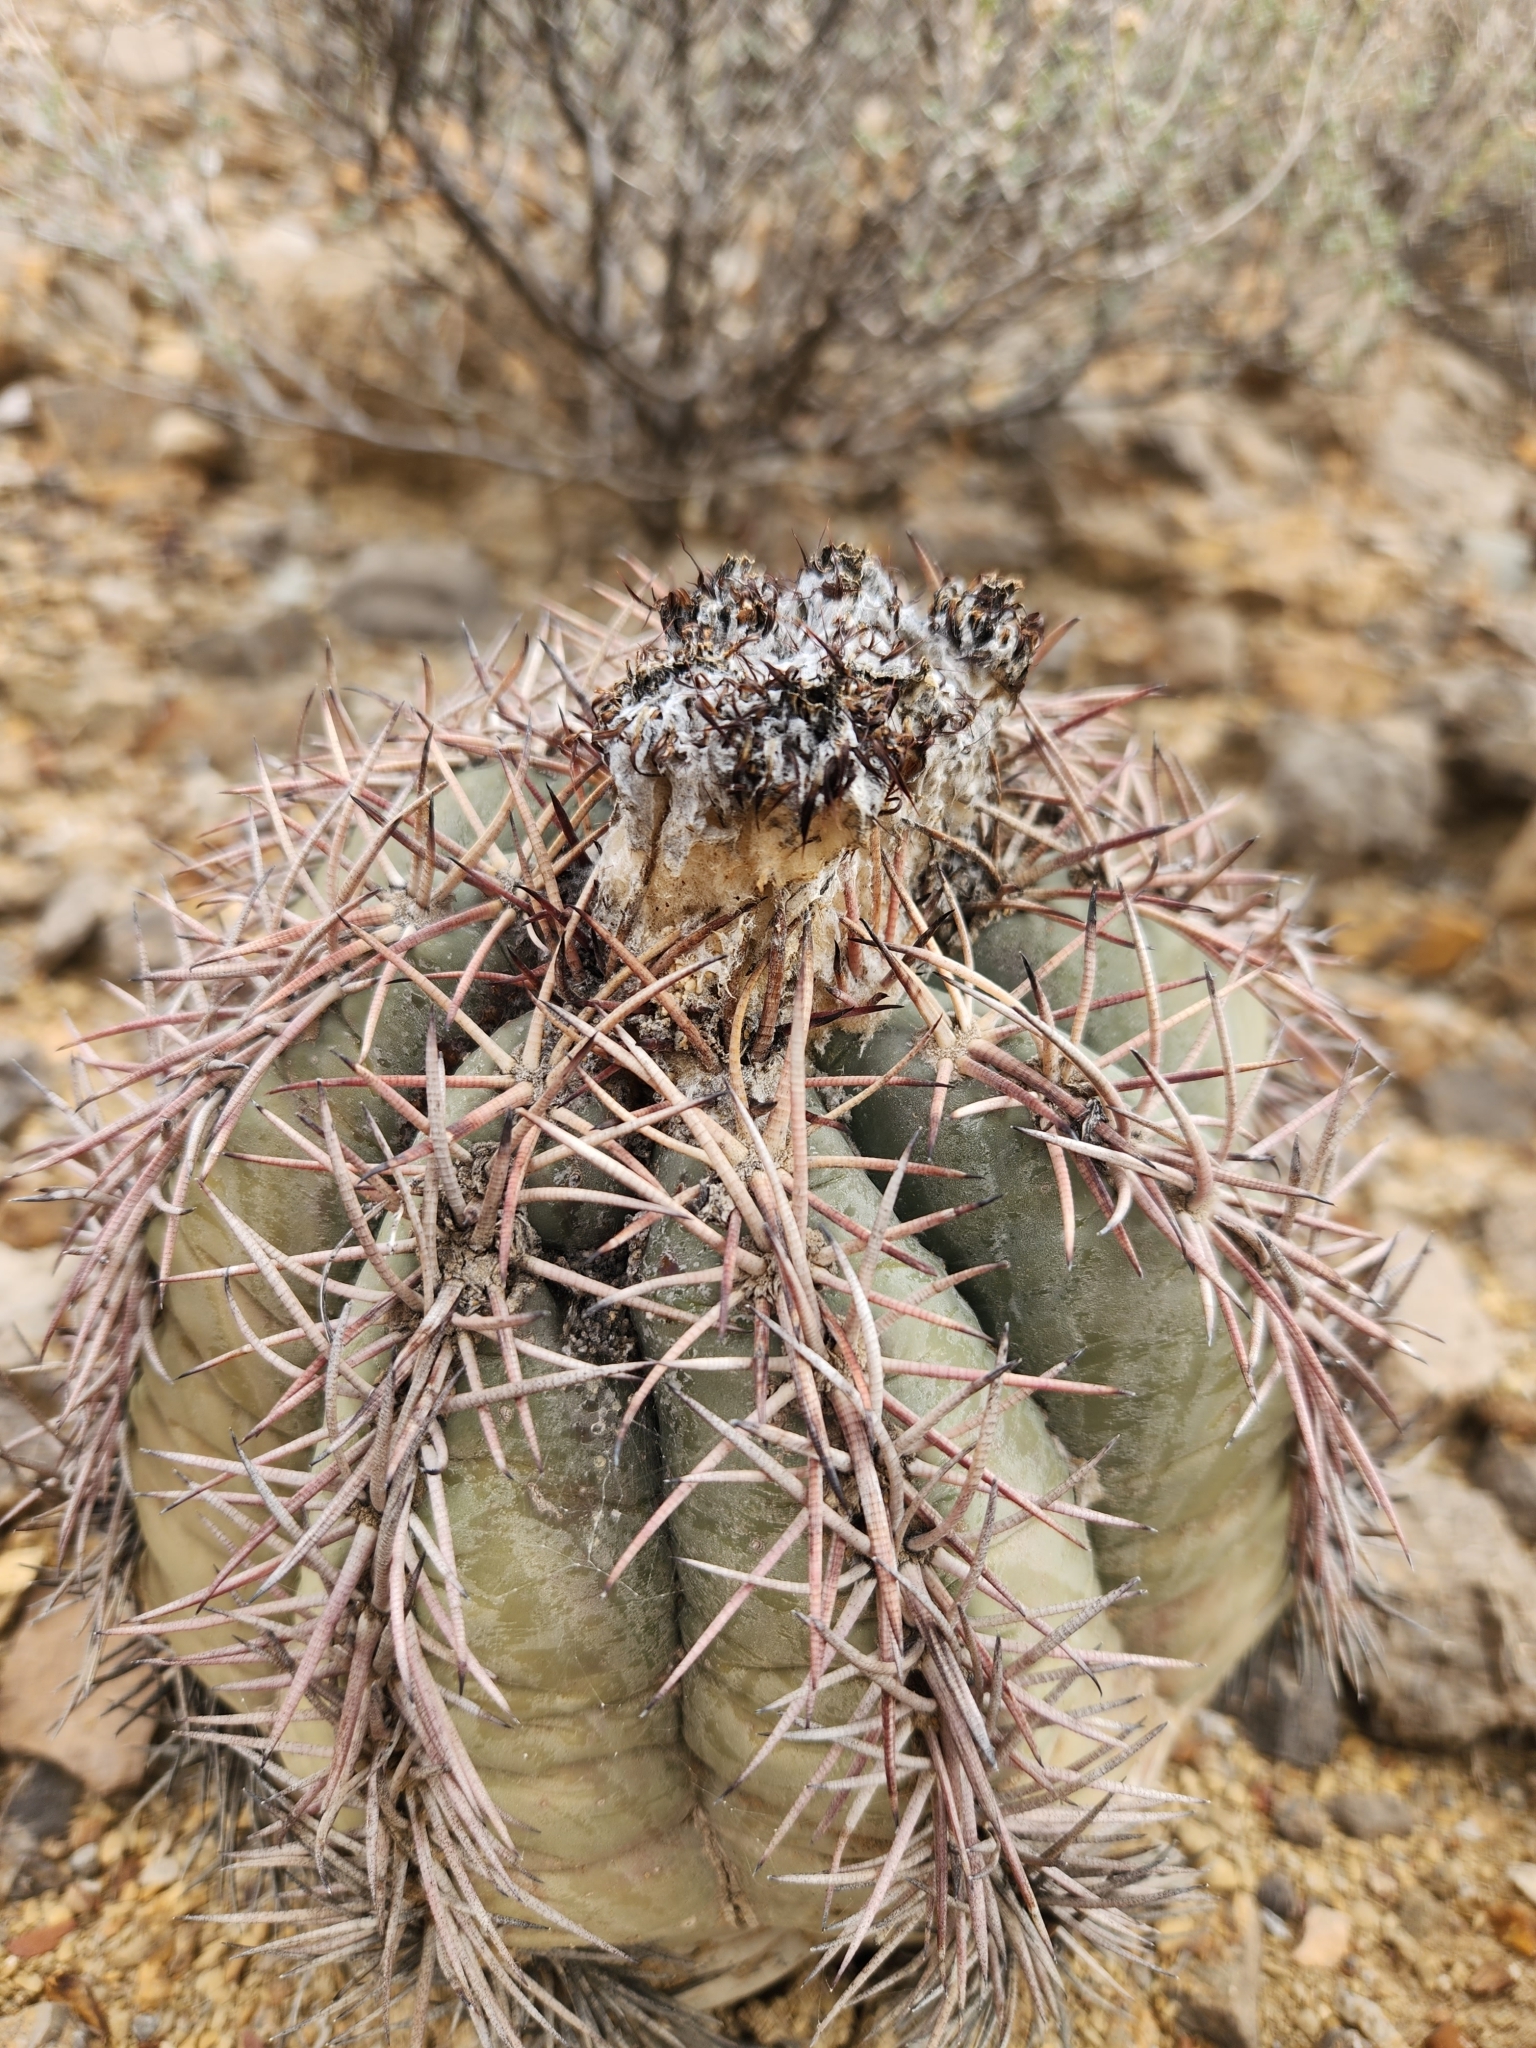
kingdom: Plantae
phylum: Tracheophyta
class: Magnoliopsida
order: Caryophyllales
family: Cactaceae
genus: Echinocactus
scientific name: Echinocactus horizonthalonius
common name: Devilshead
